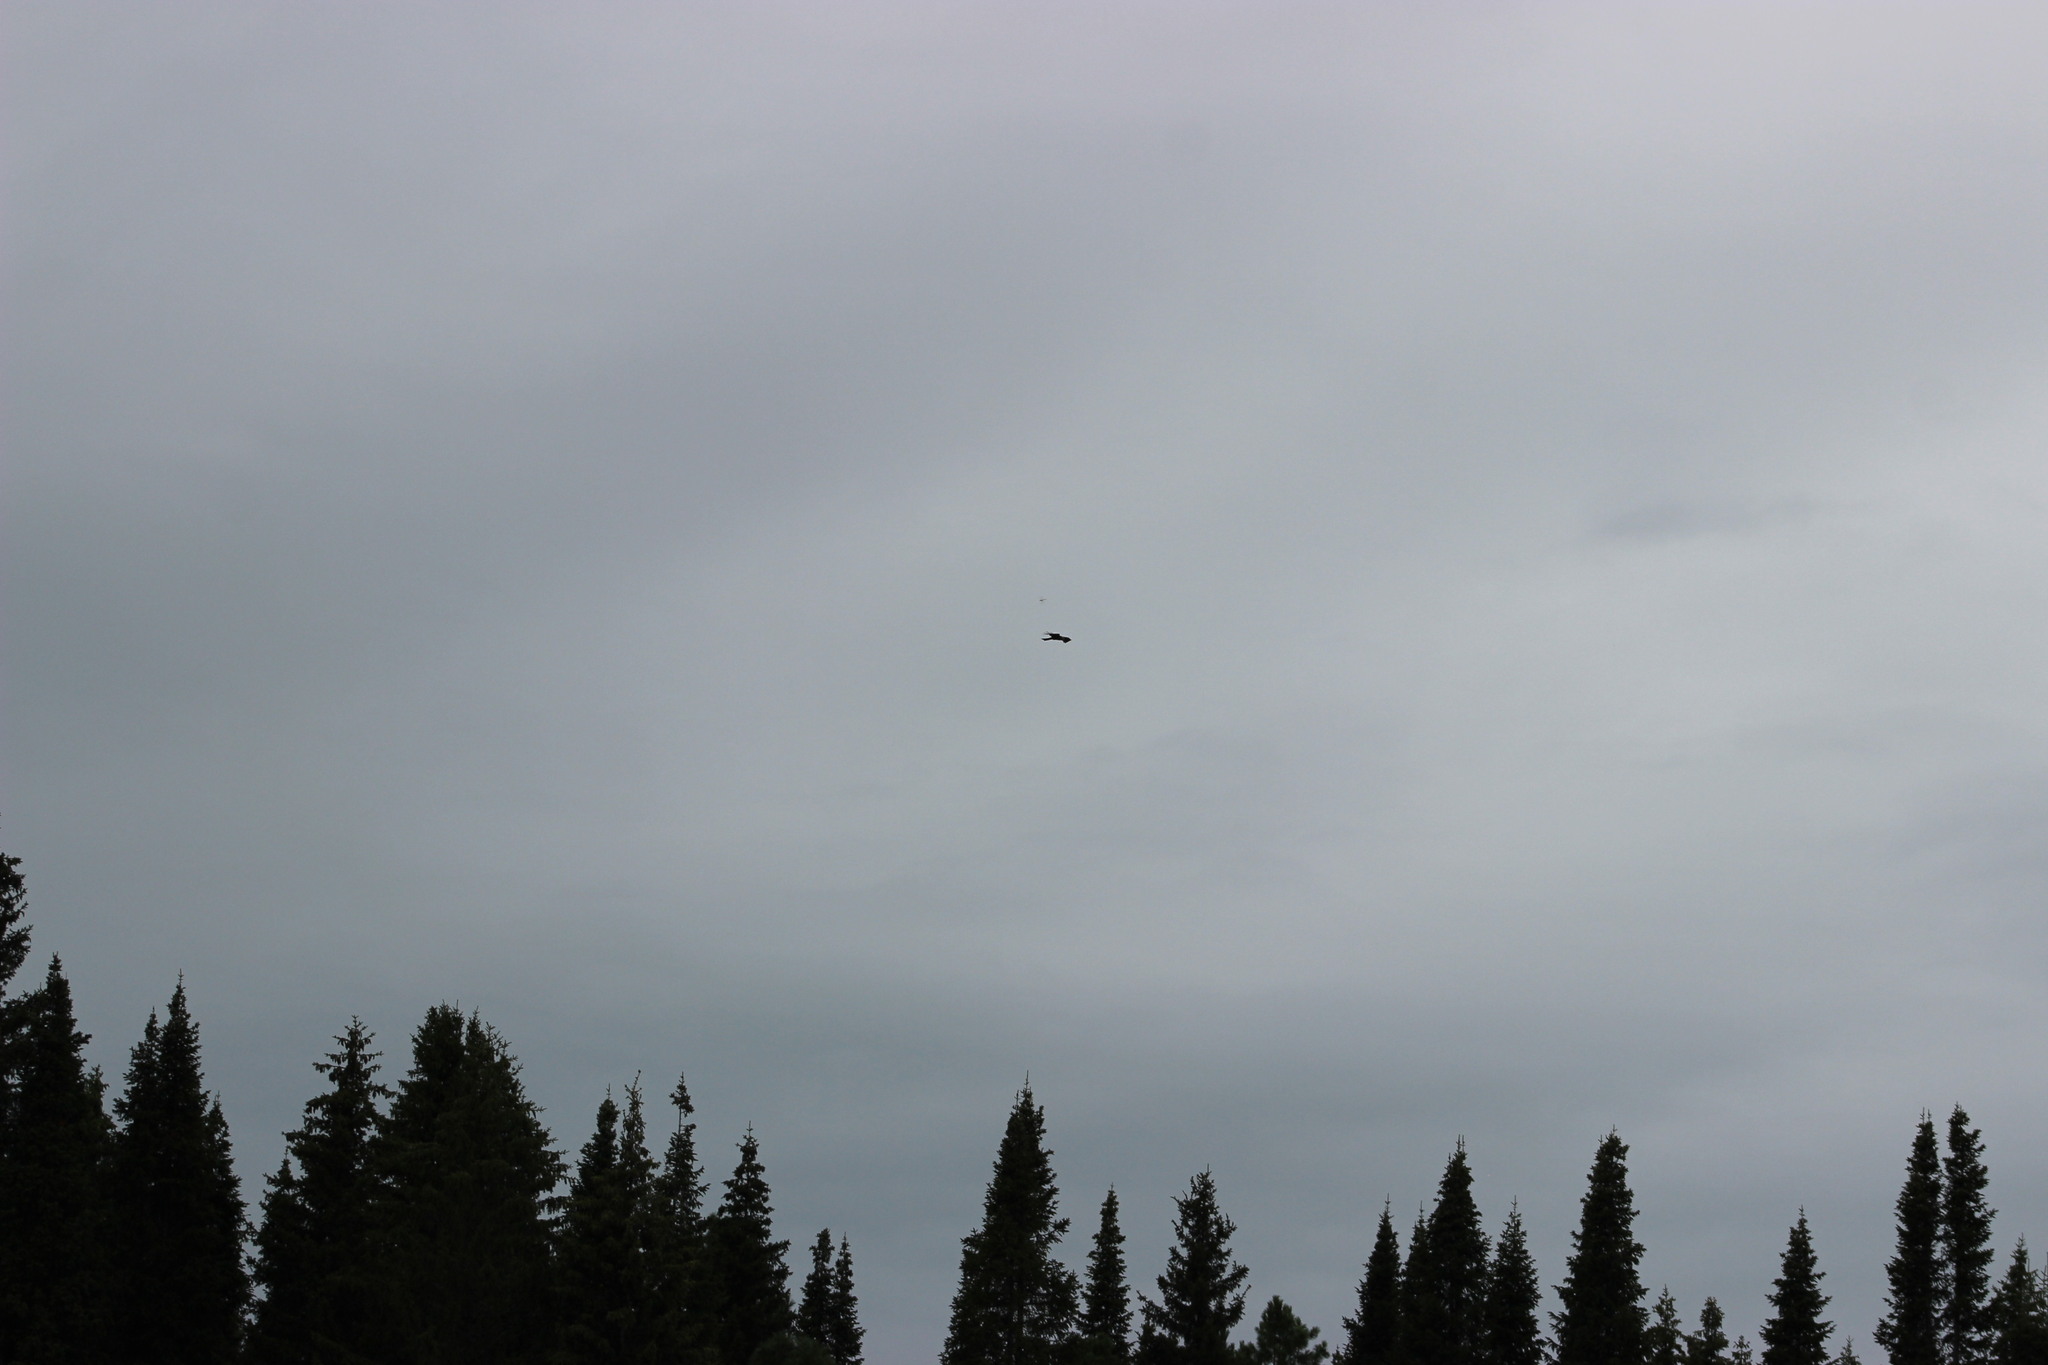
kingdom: Animalia
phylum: Chordata
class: Aves
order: Accipitriformes
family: Accipitridae
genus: Milvus
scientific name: Milvus migrans
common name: Black kite
